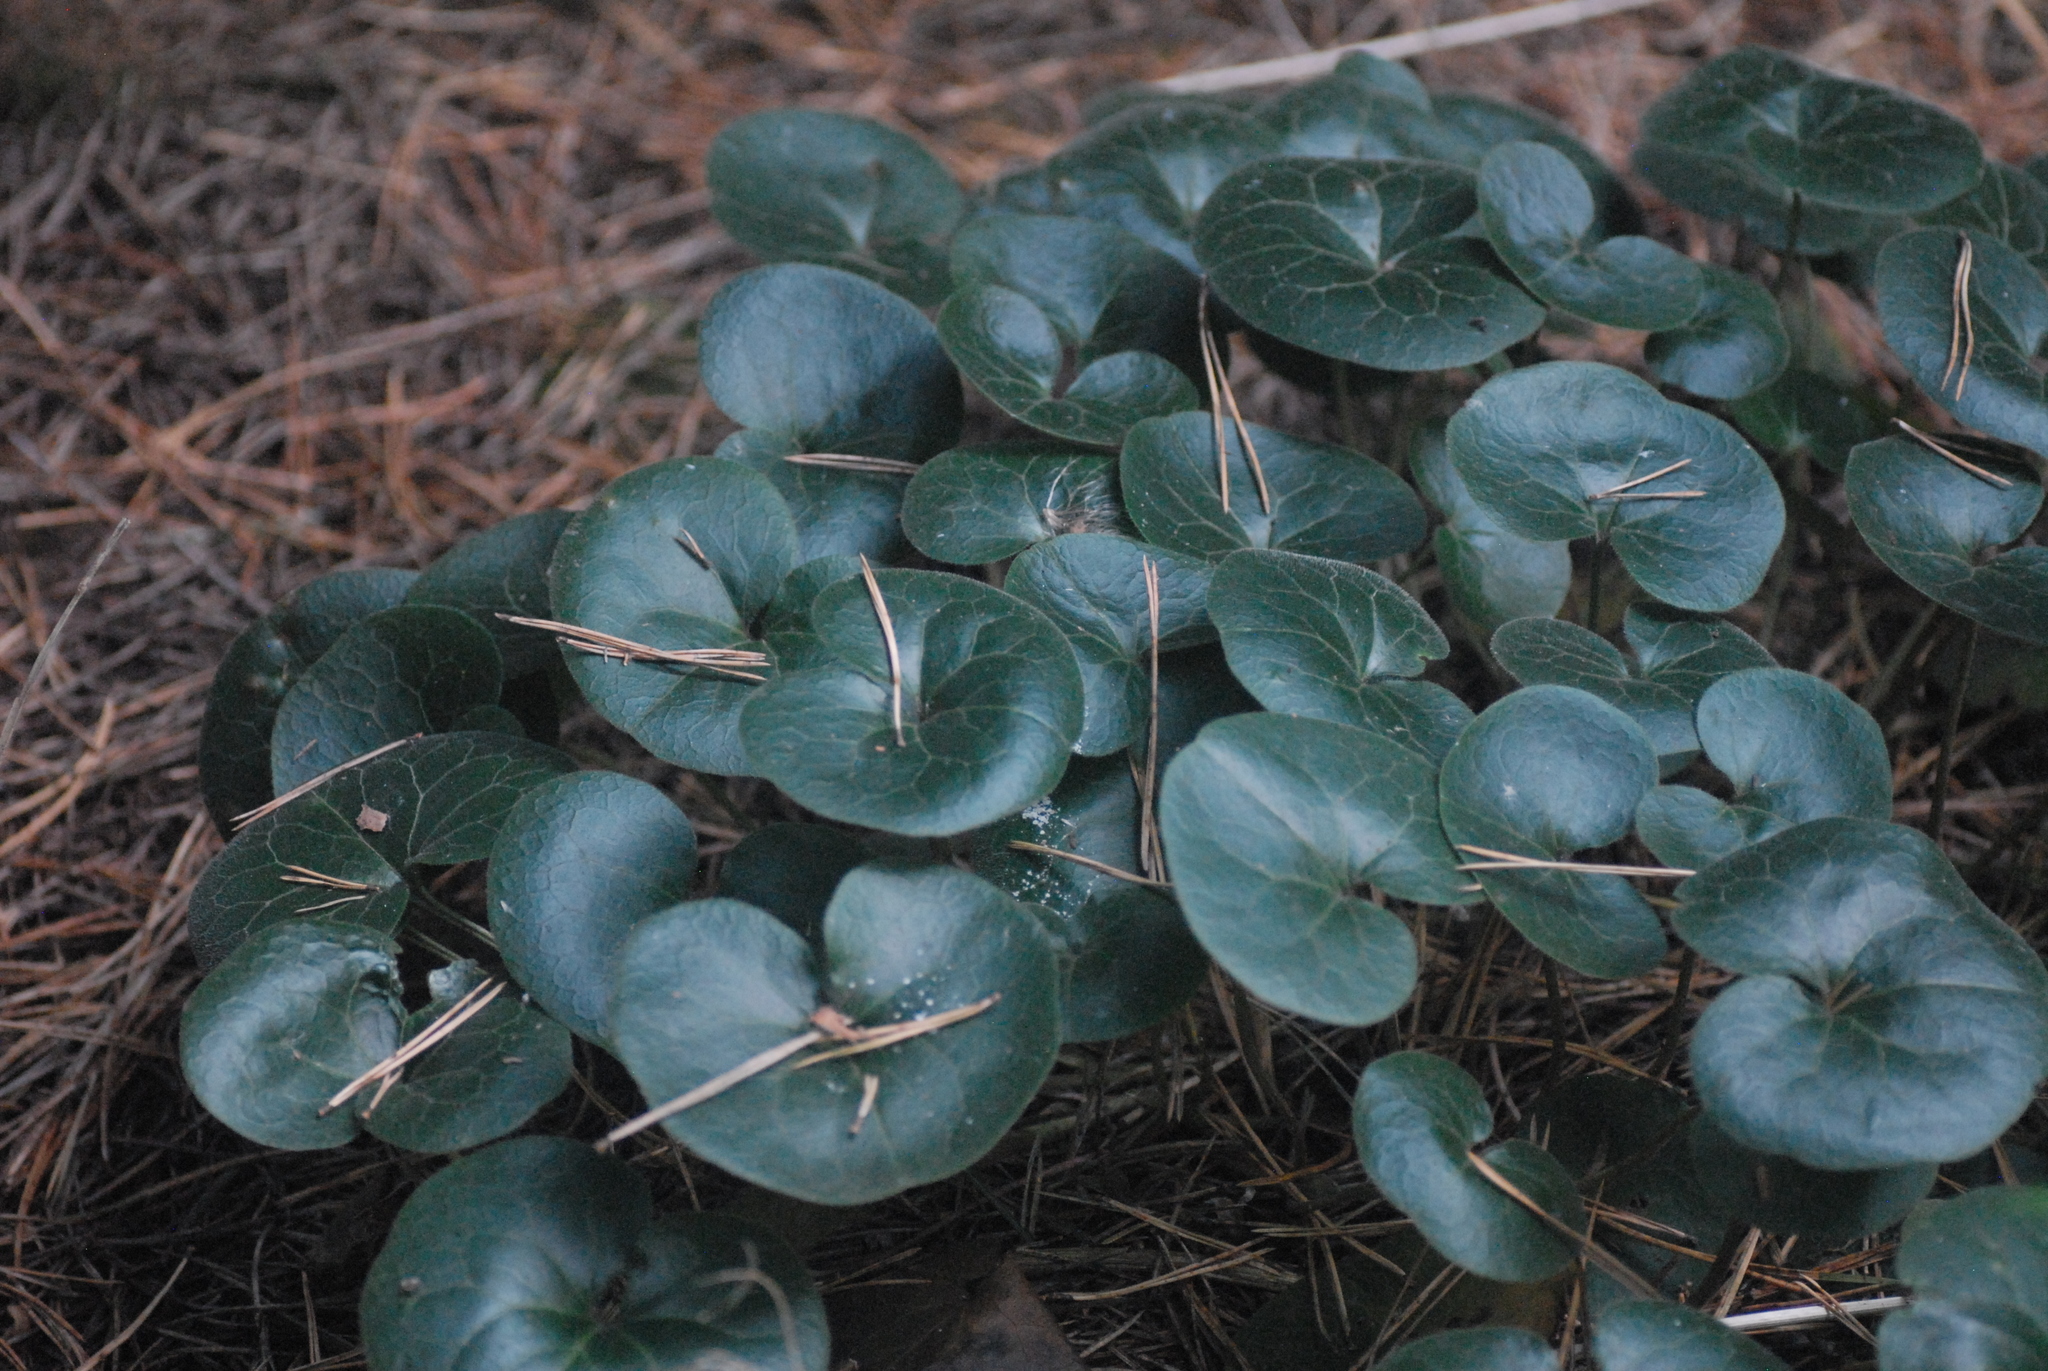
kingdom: Plantae
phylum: Tracheophyta
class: Magnoliopsida
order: Piperales
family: Aristolochiaceae
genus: Asarum
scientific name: Asarum europaeum
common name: Asarabacca
